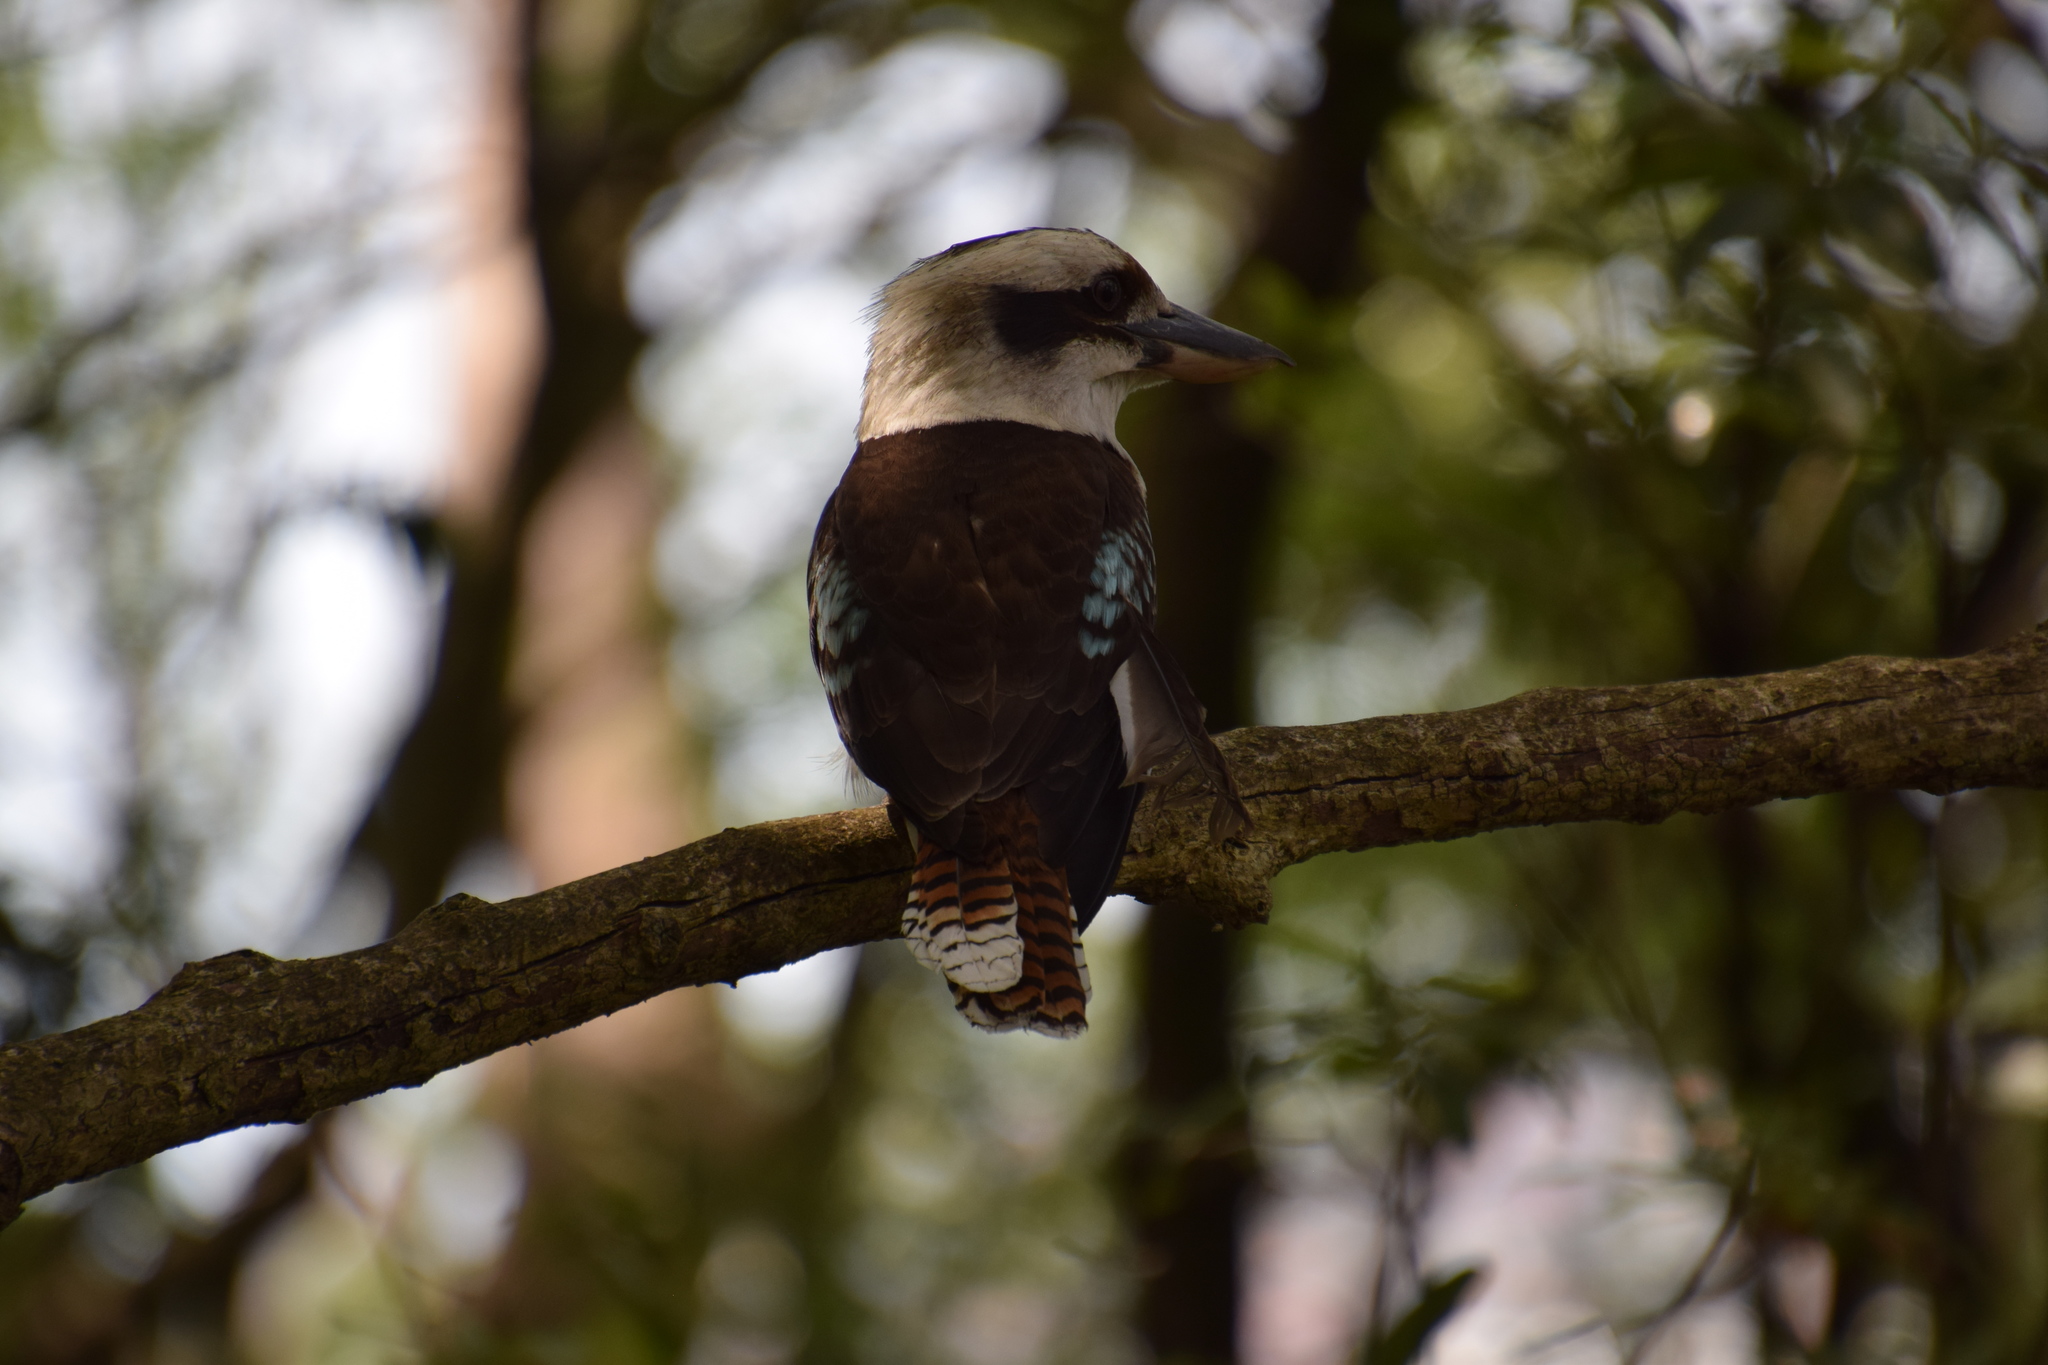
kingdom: Animalia
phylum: Chordata
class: Aves
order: Coraciiformes
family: Alcedinidae
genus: Dacelo
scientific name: Dacelo novaeguineae
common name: Laughing kookaburra
